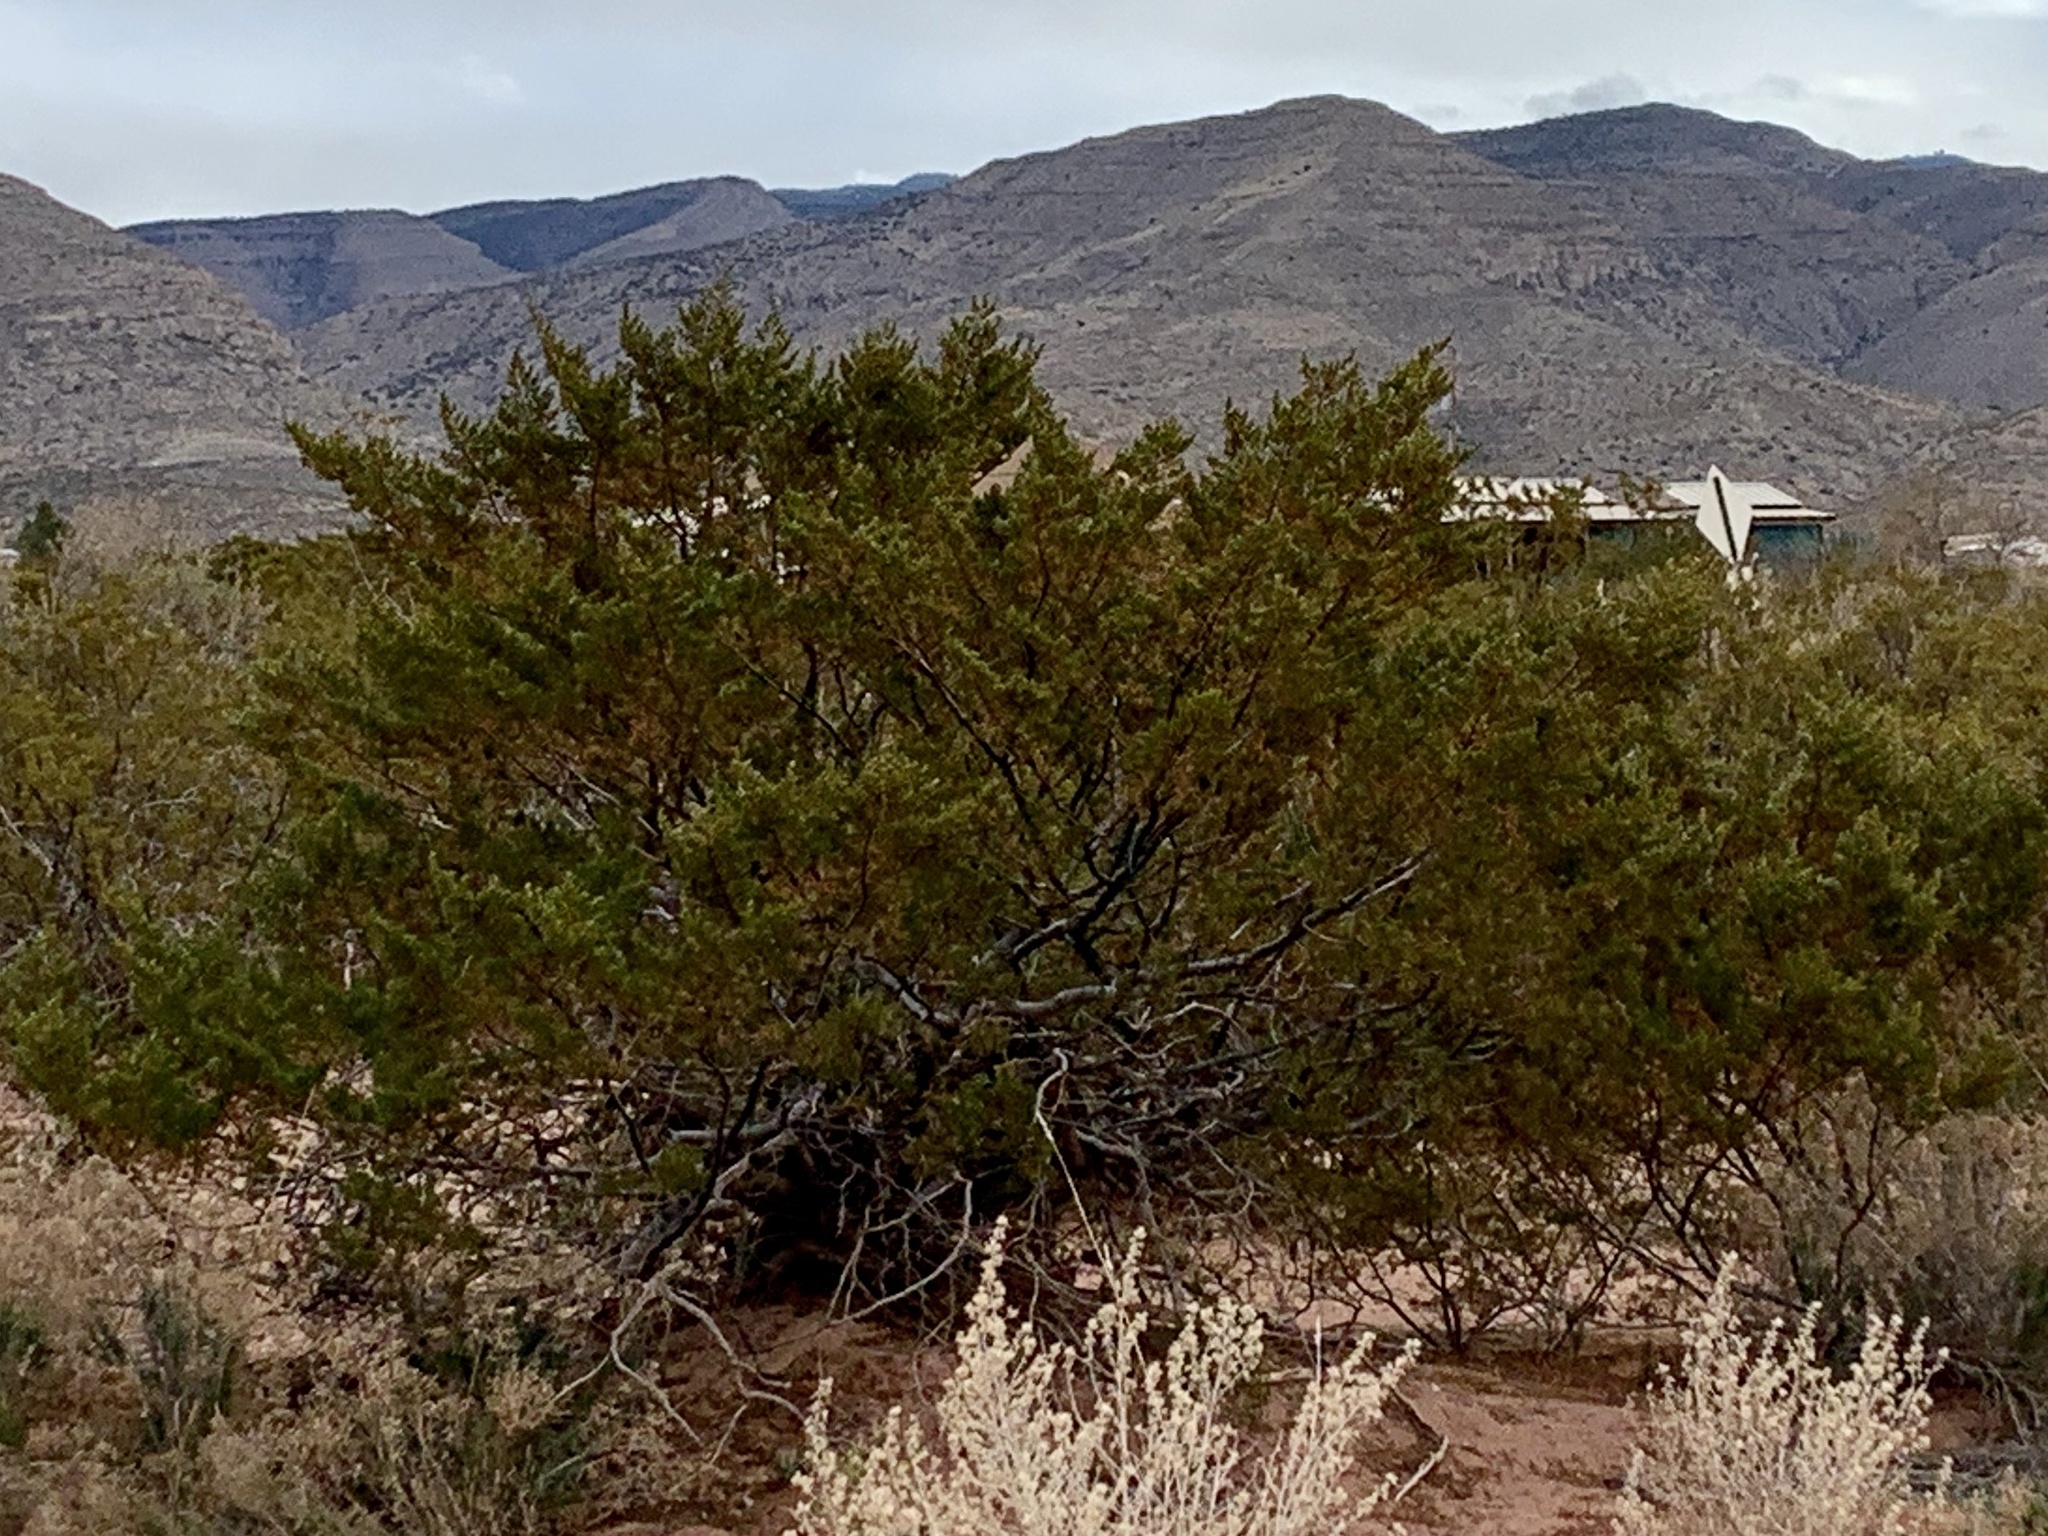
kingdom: Plantae
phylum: Tracheophyta
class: Magnoliopsida
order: Zygophyllales
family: Zygophyllaceae
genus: Larrea
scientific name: Larrea tridentata
